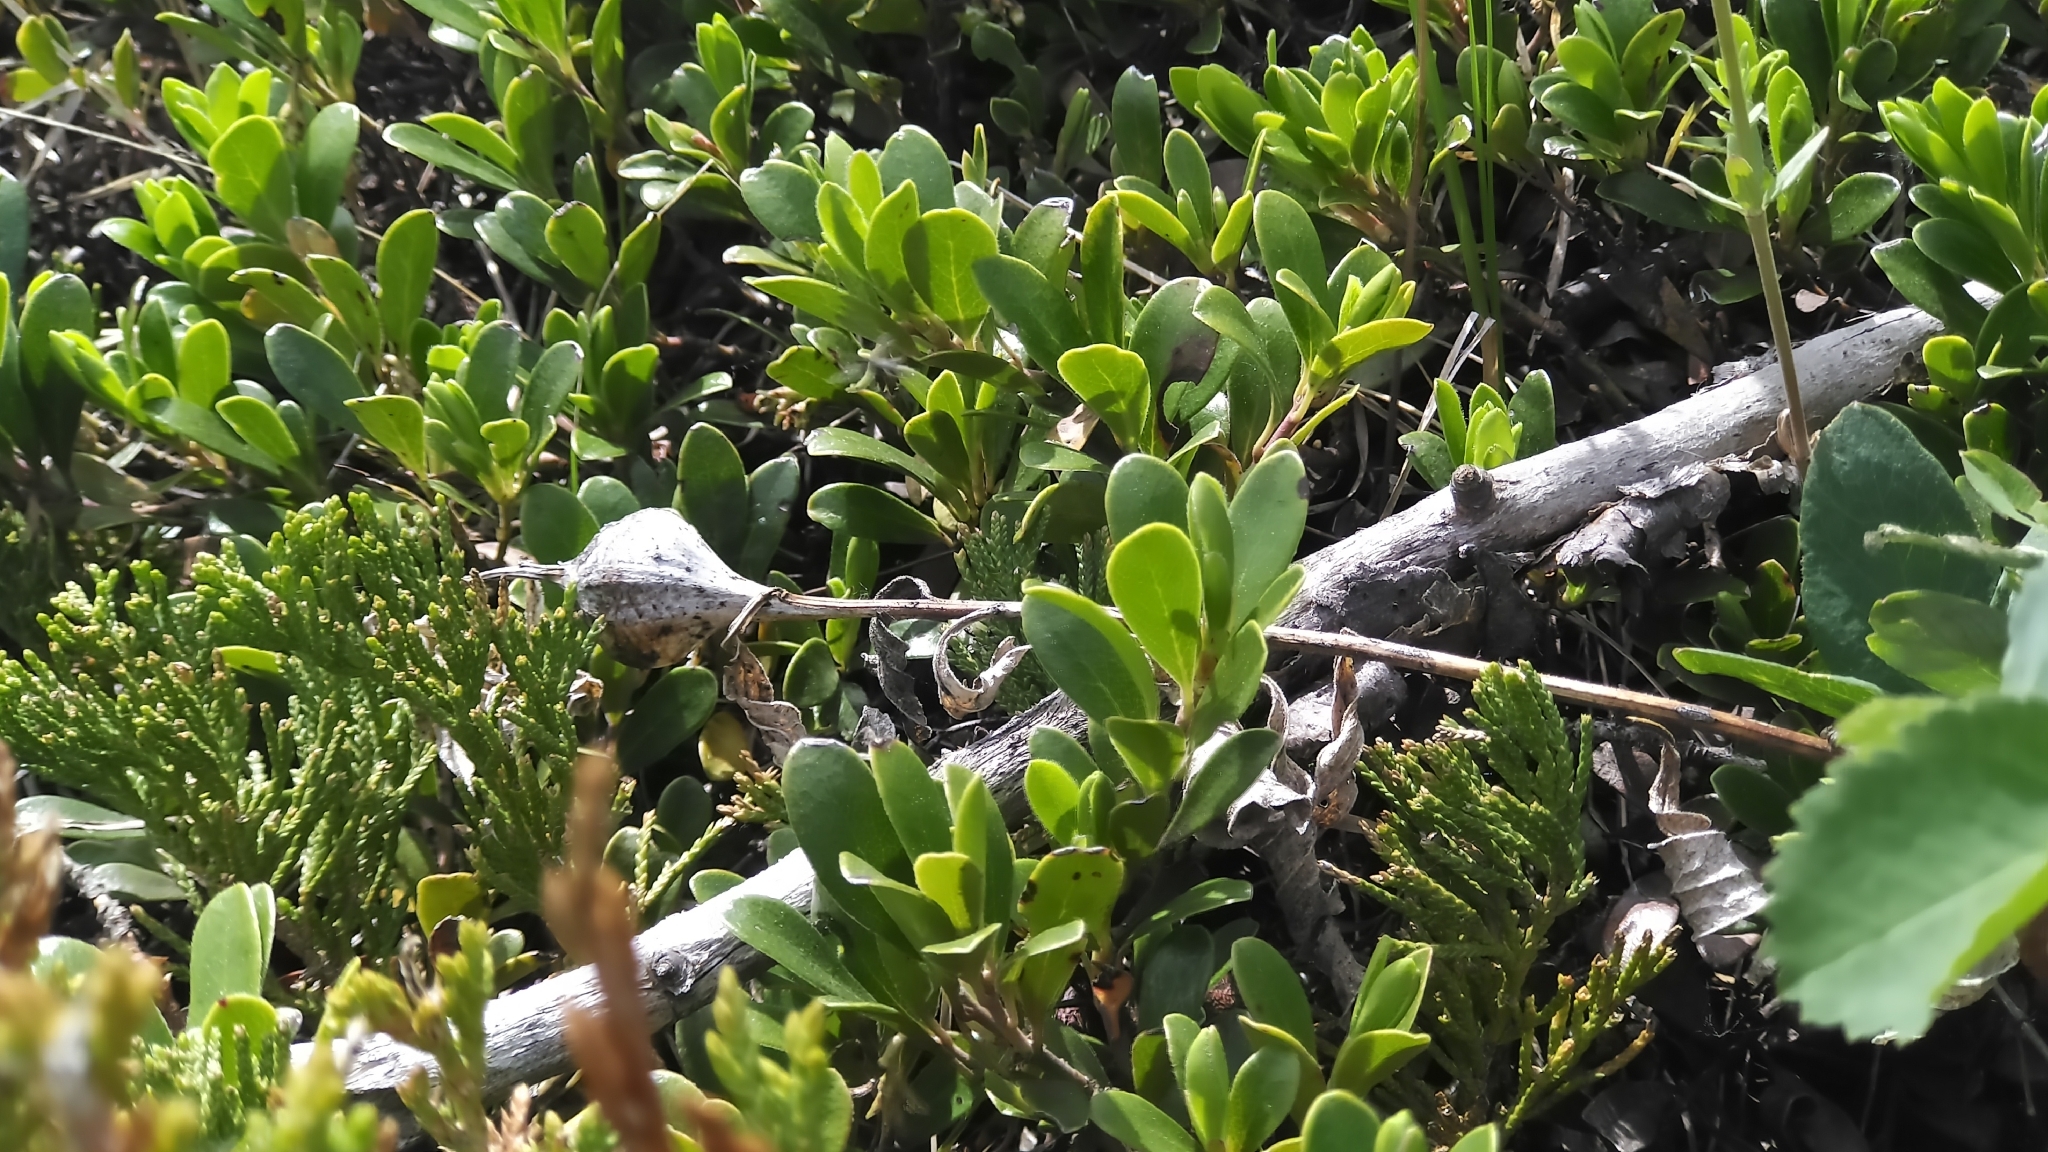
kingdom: Plantae
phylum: Tracheophyta
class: Magnoliopsida
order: Ericales
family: Ericaceae
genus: Arctostaphylos
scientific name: Arctostaphylos uva-ursi
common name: Bearberry
